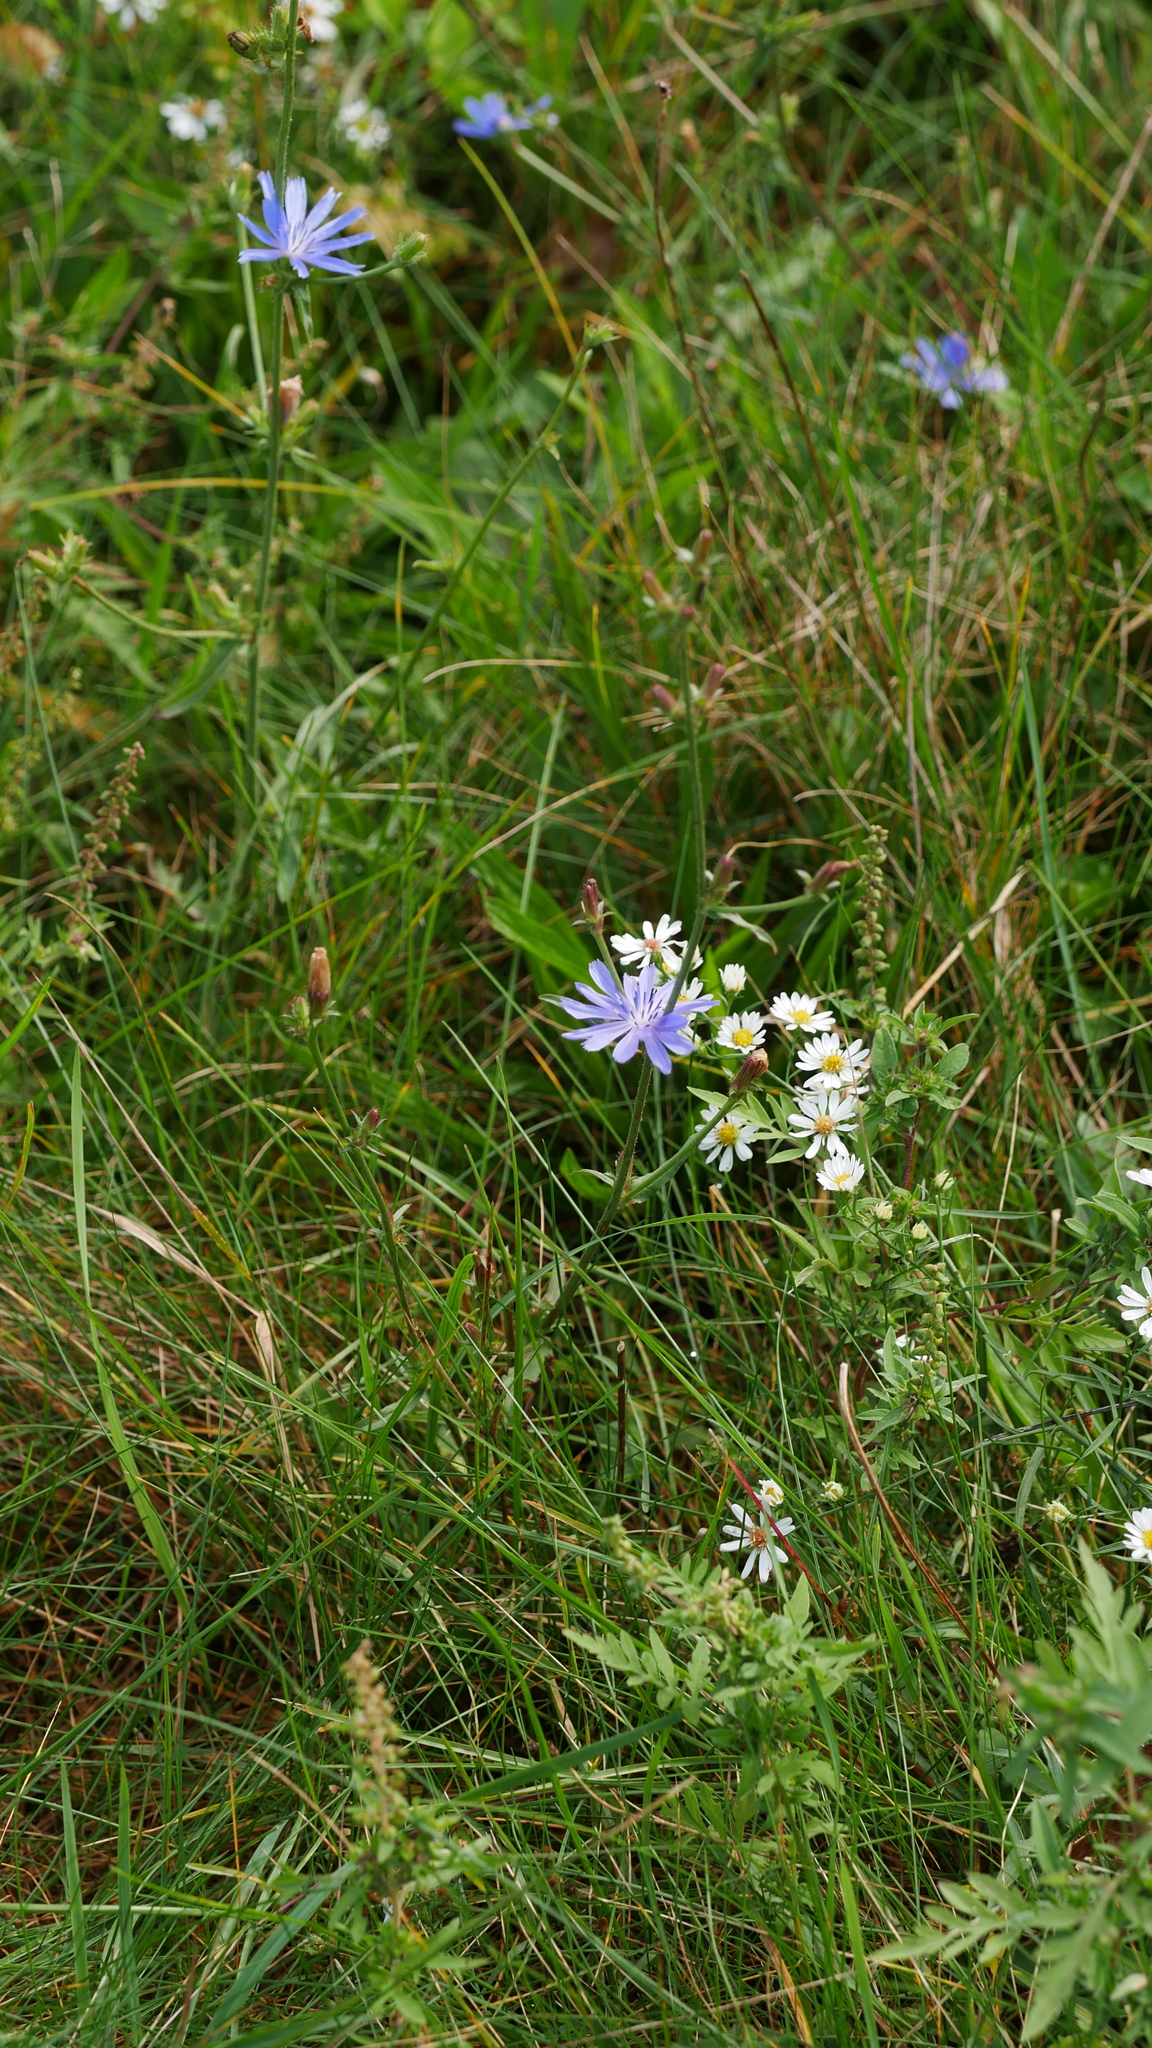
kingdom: Plantae
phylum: Tracheophyta
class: Magnoliopsida
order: Asterales
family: Asteraceae
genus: Cichorium
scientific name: Cichorium intybus
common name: Chicory
